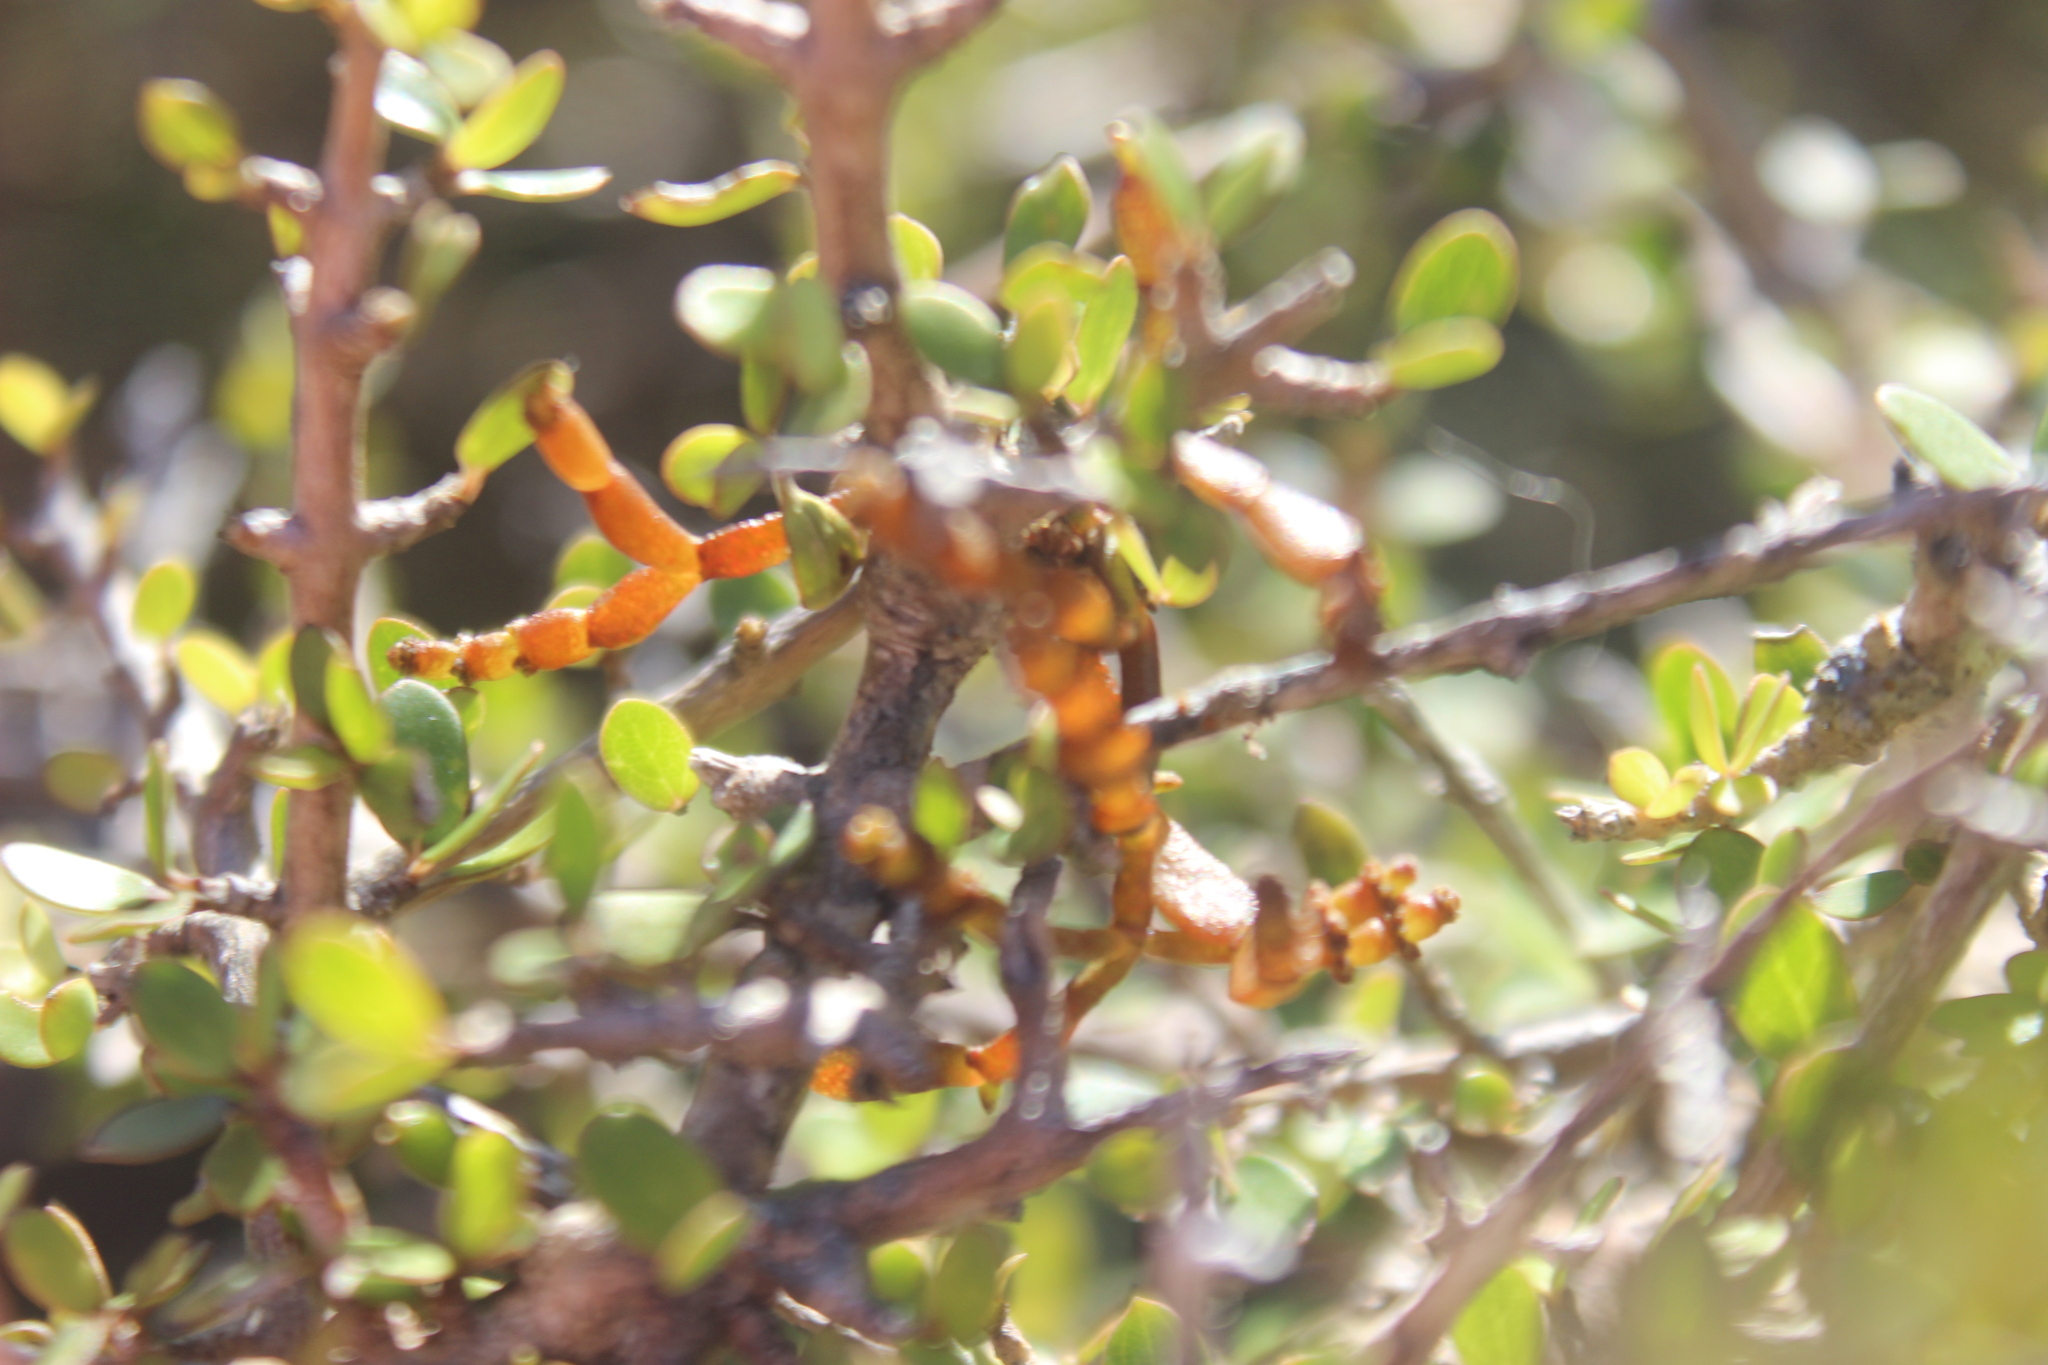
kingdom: Plantae
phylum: Tracheophyta
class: Magnoliopsida
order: Gentianales
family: Rubiaceae
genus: Coprosma
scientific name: Coprosma propinqua
